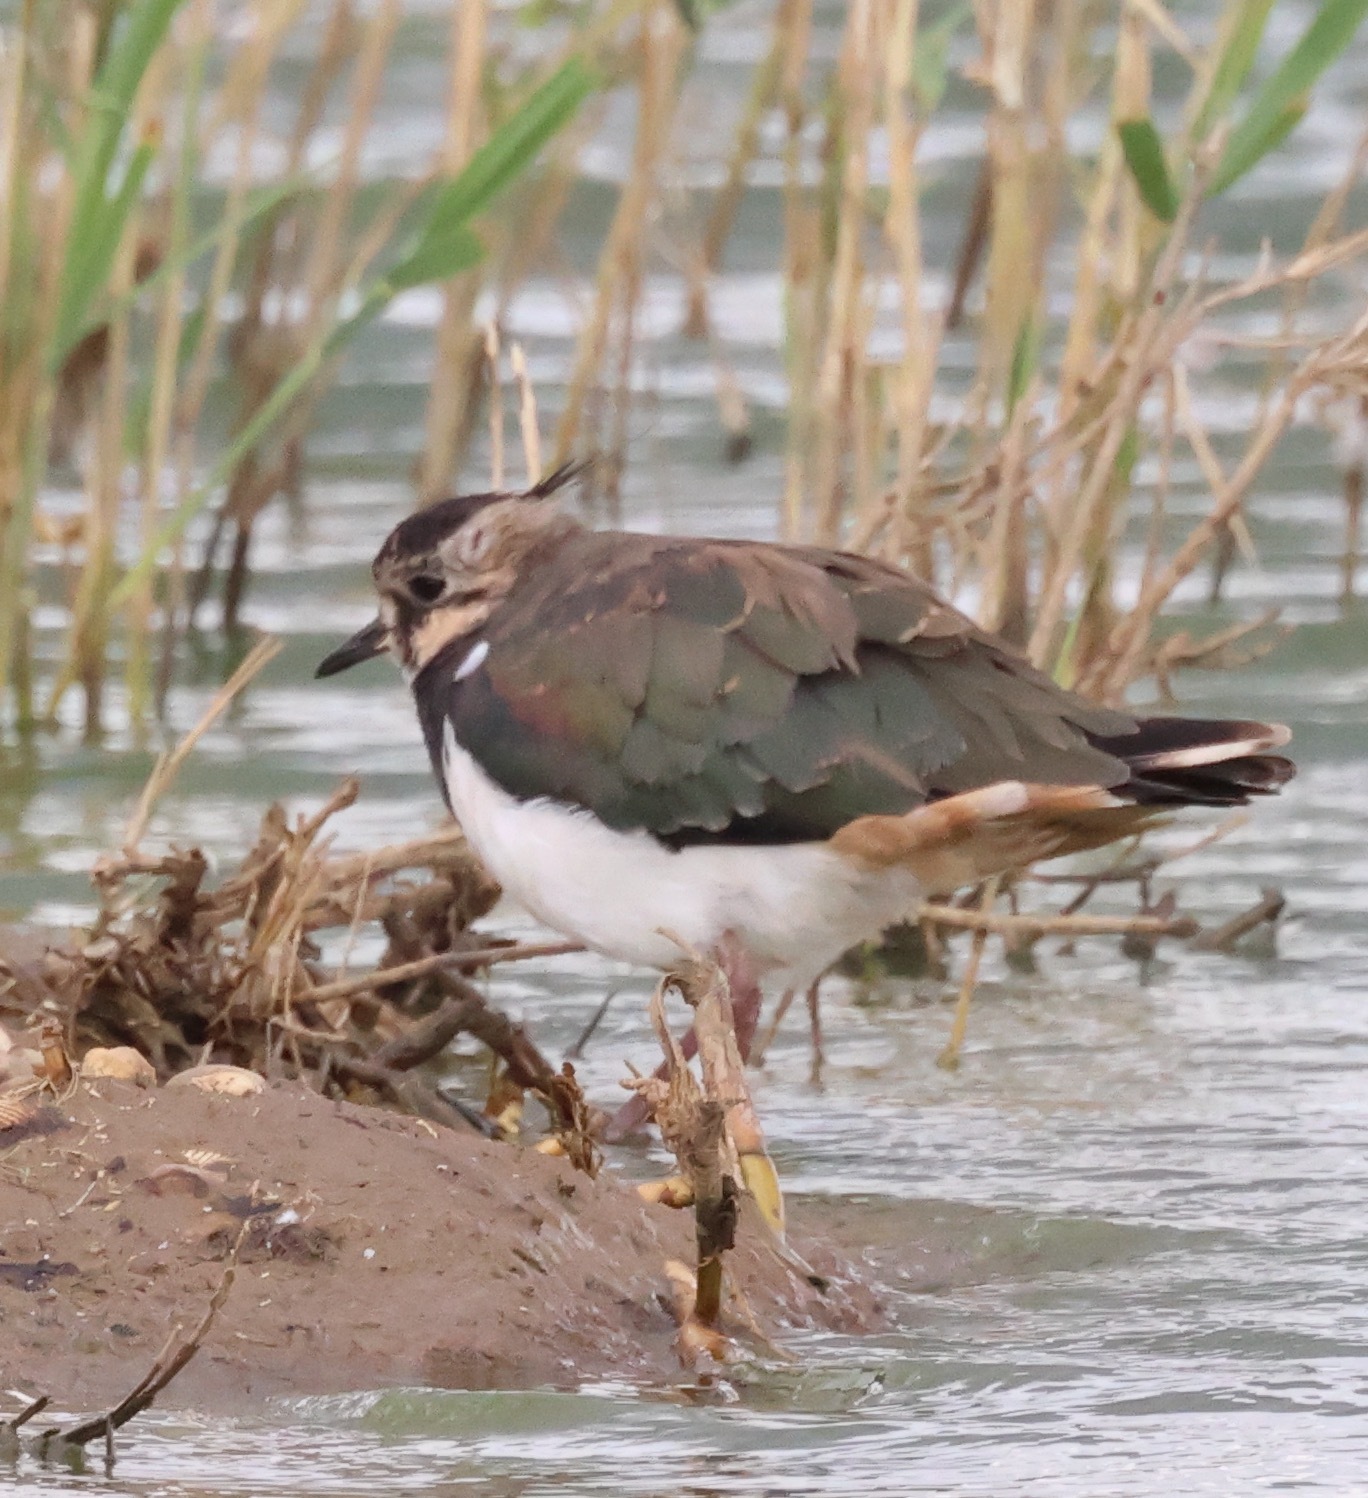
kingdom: Animalia
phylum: Chordata
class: Aves
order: Charadriiformes
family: Charadriidae
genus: Vanellus
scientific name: Vanellus vanellus
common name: Northern lapwing
